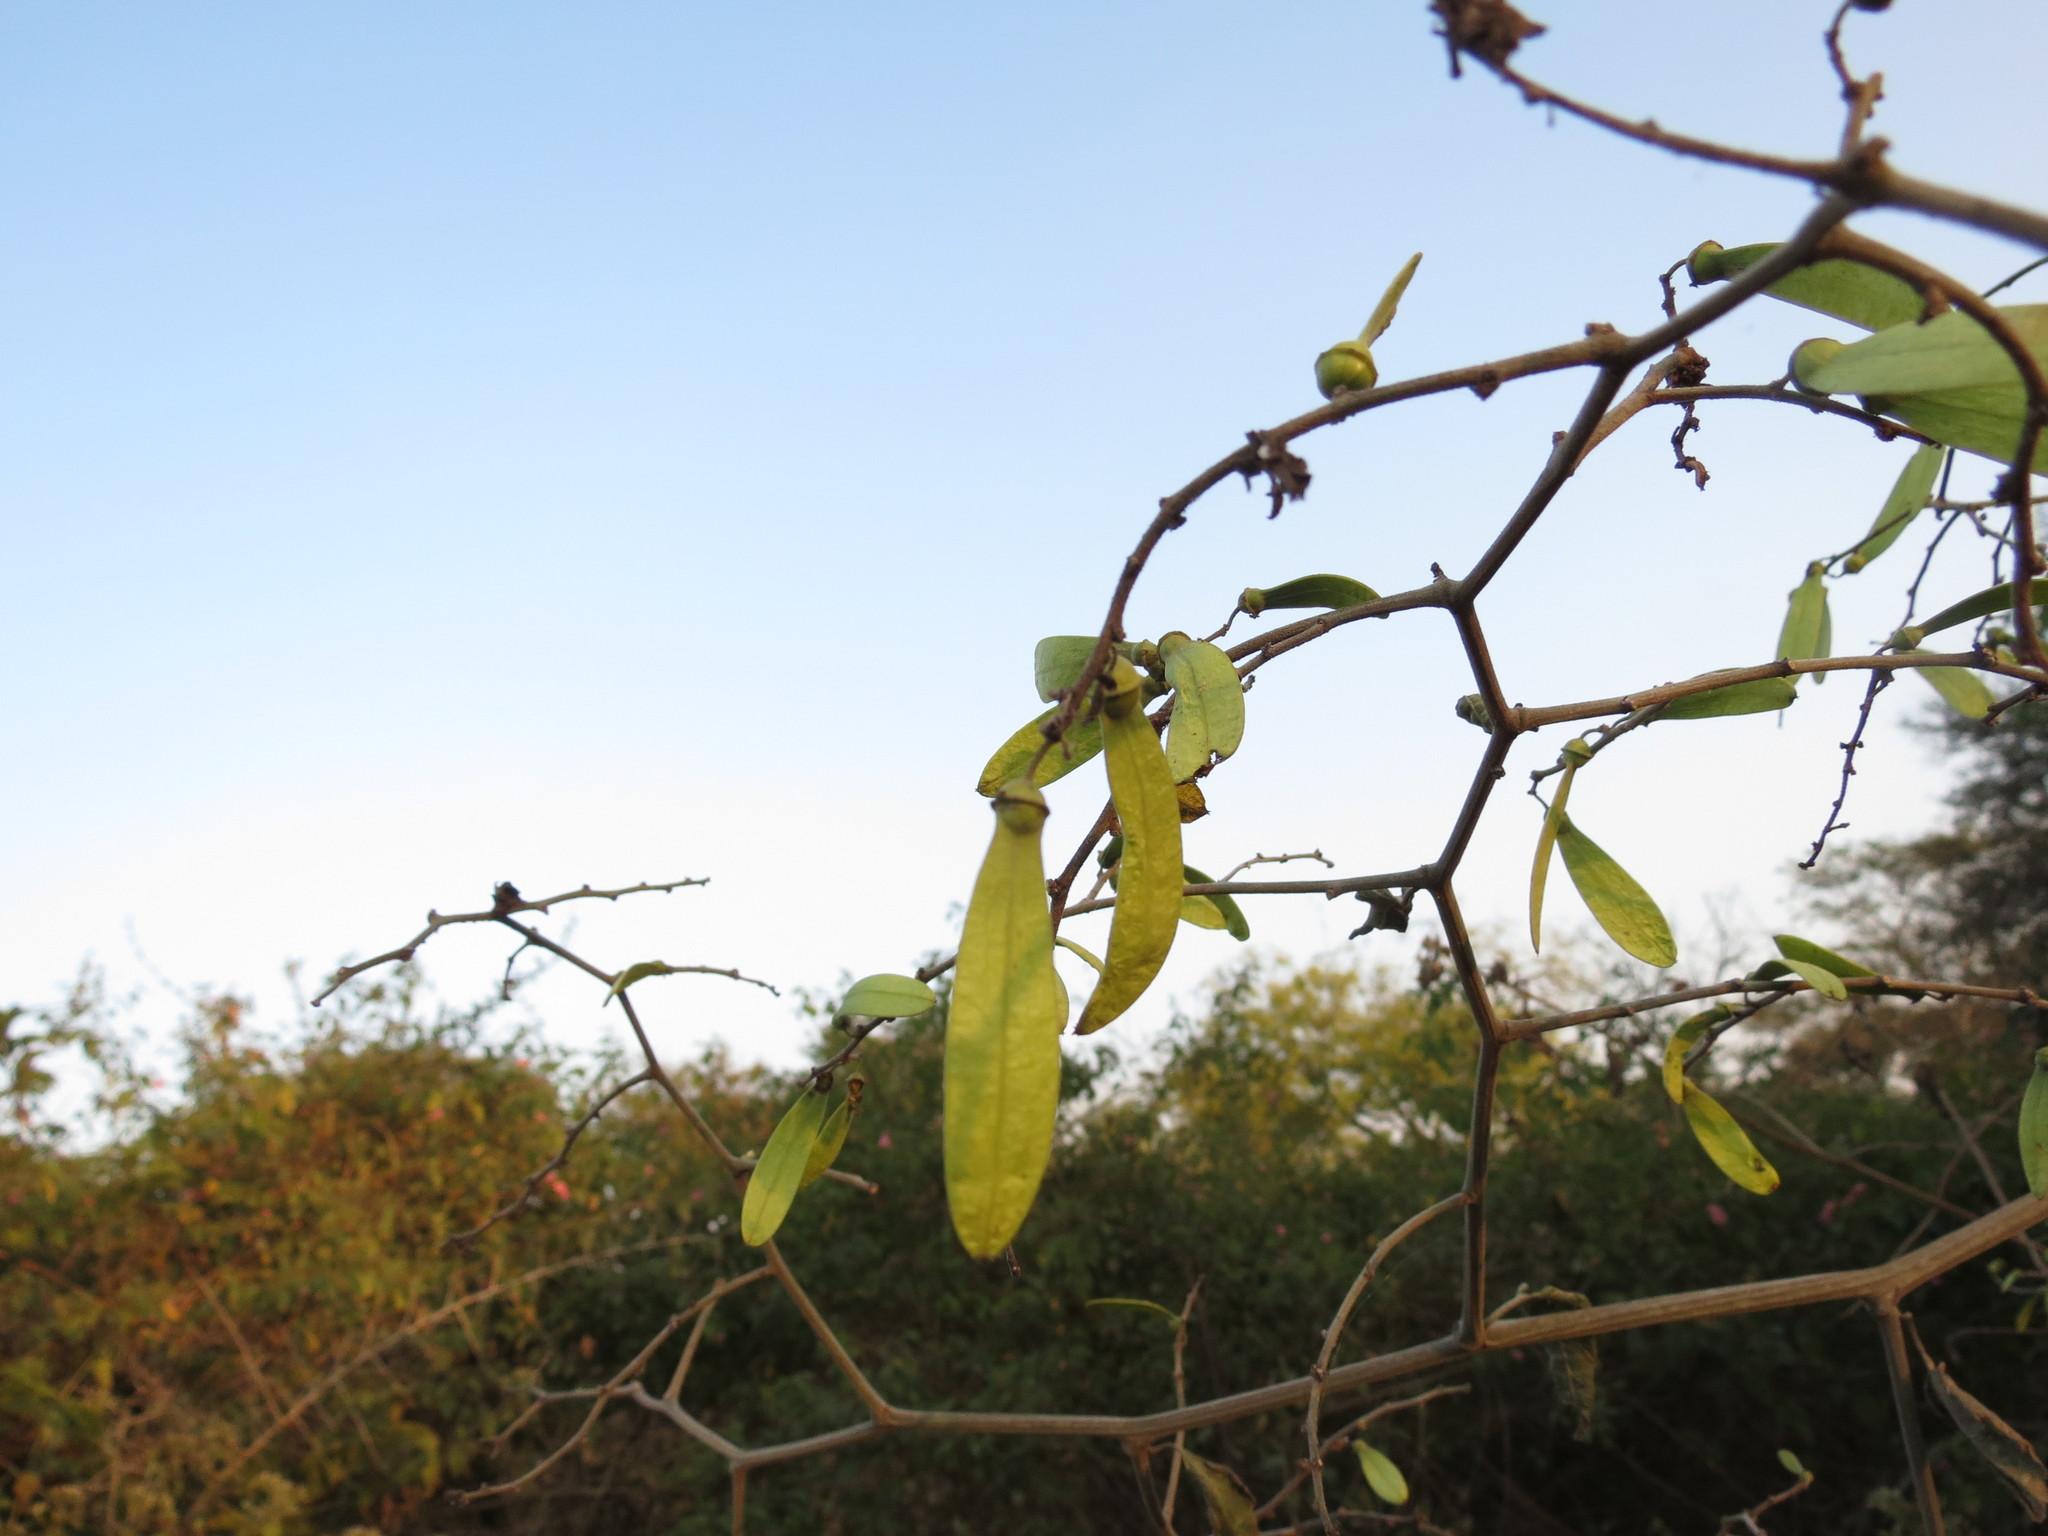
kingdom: Plantae
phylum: Tracheophyta
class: Magnoliopsida
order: Rosales
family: Rhamnaceae
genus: Ventilago
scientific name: Ventilago denticulata
